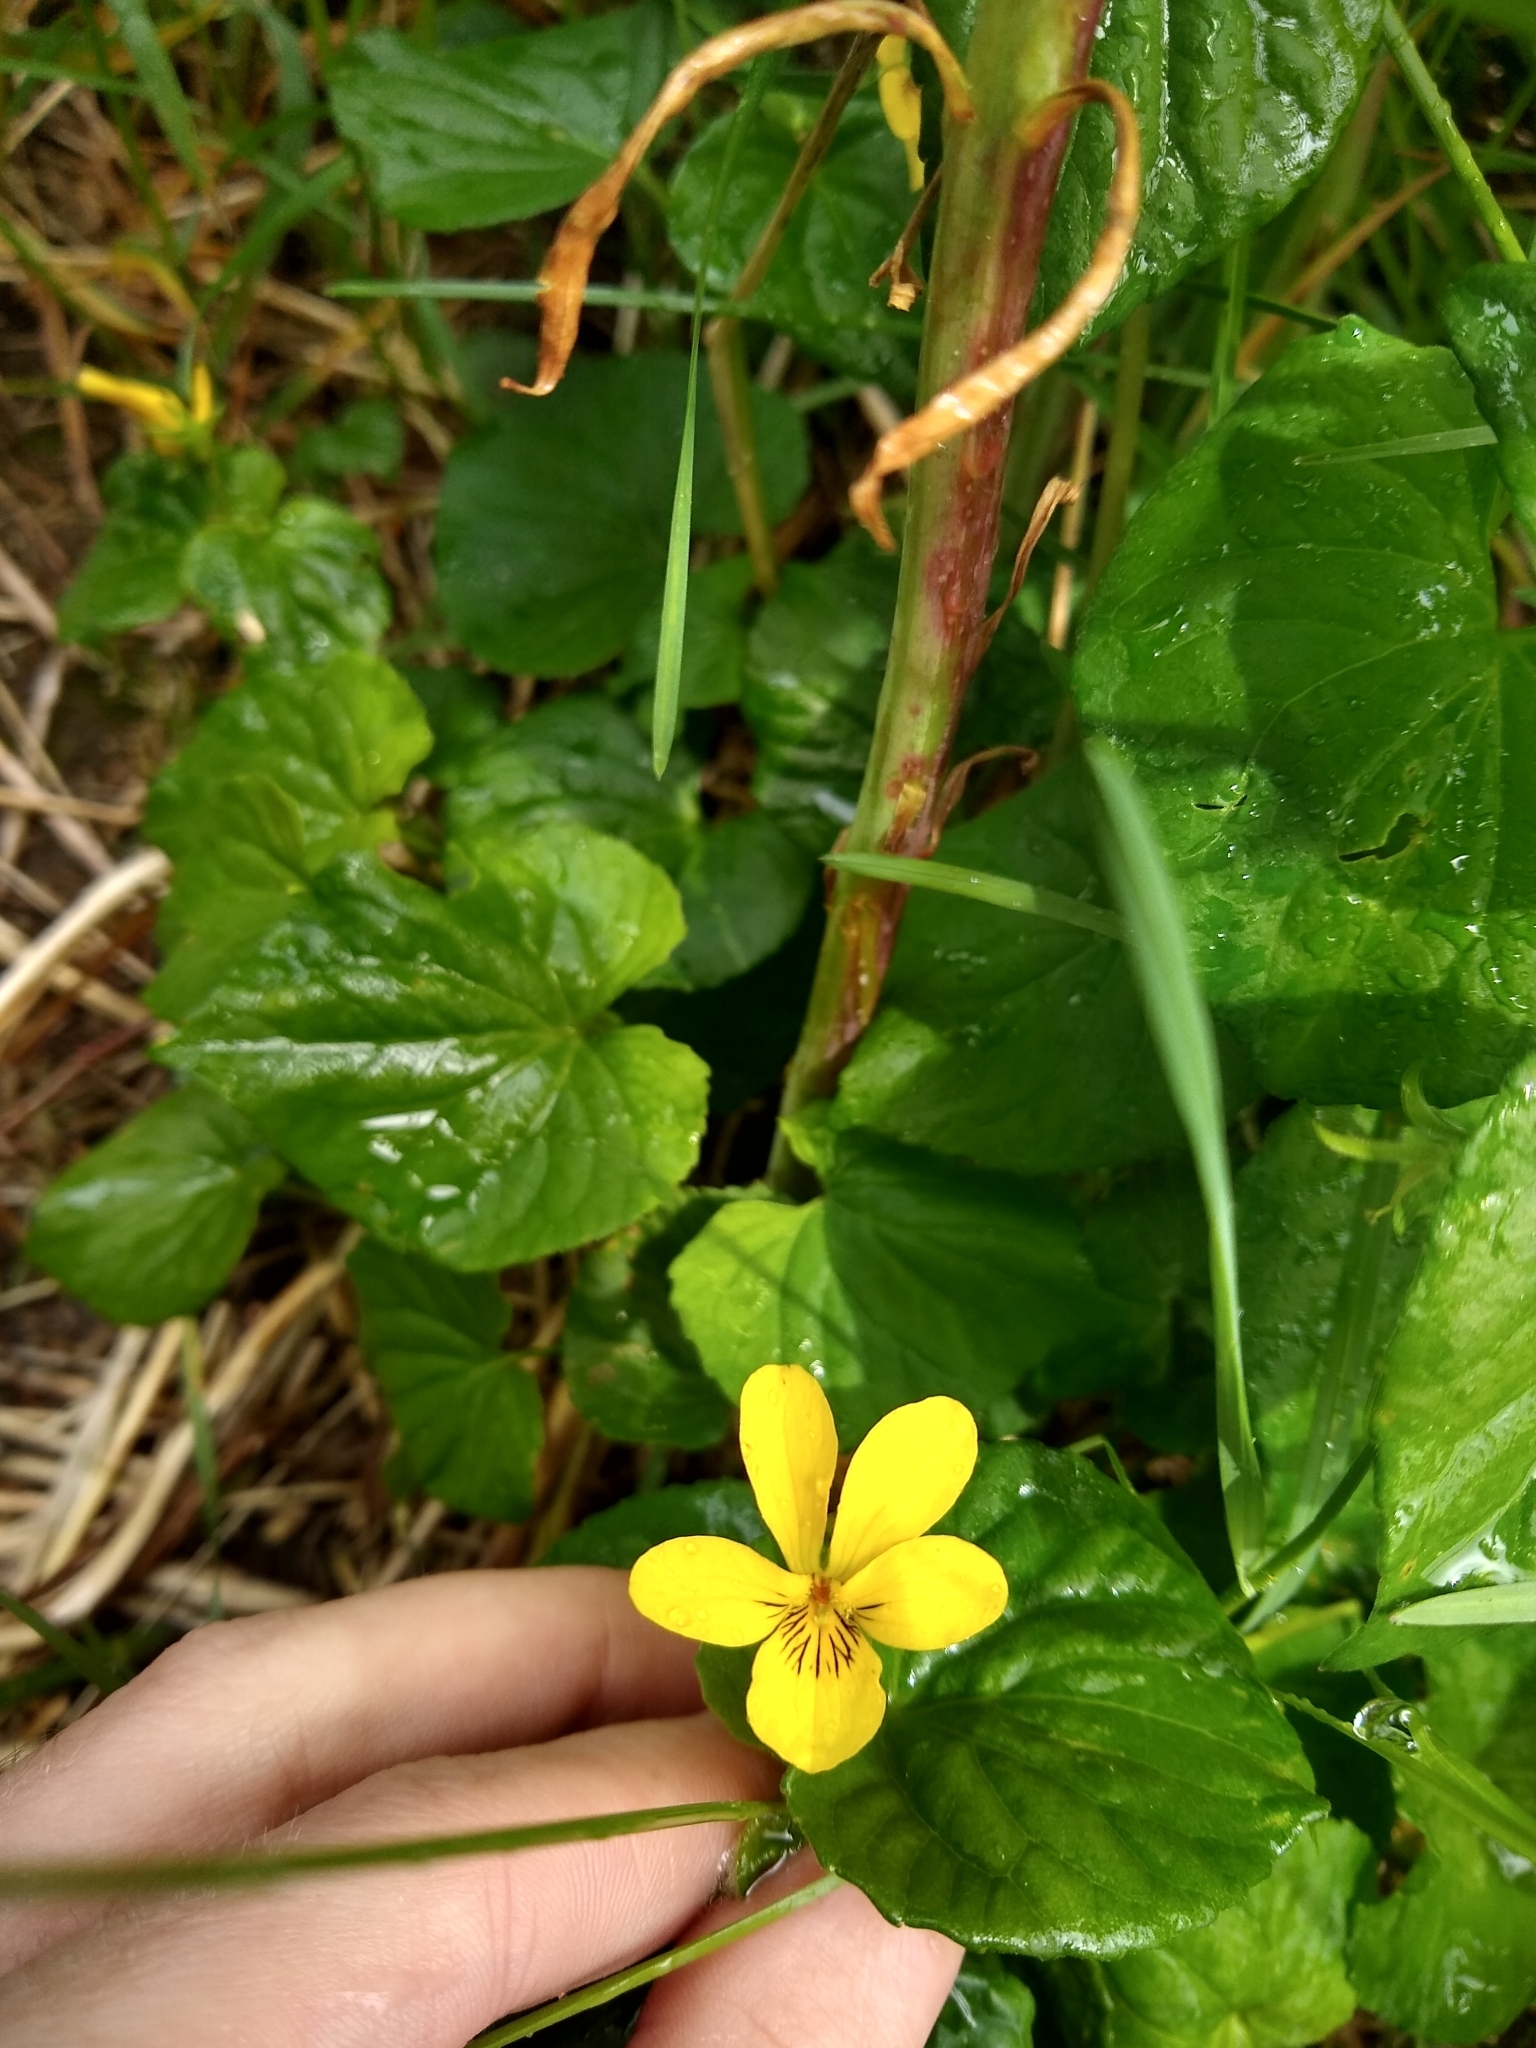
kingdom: Plantae
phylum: Tracheophyta
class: Magnoliopsida
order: Malpighiales
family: Violaceae
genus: Viola
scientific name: Viola glabella
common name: Stream violet
